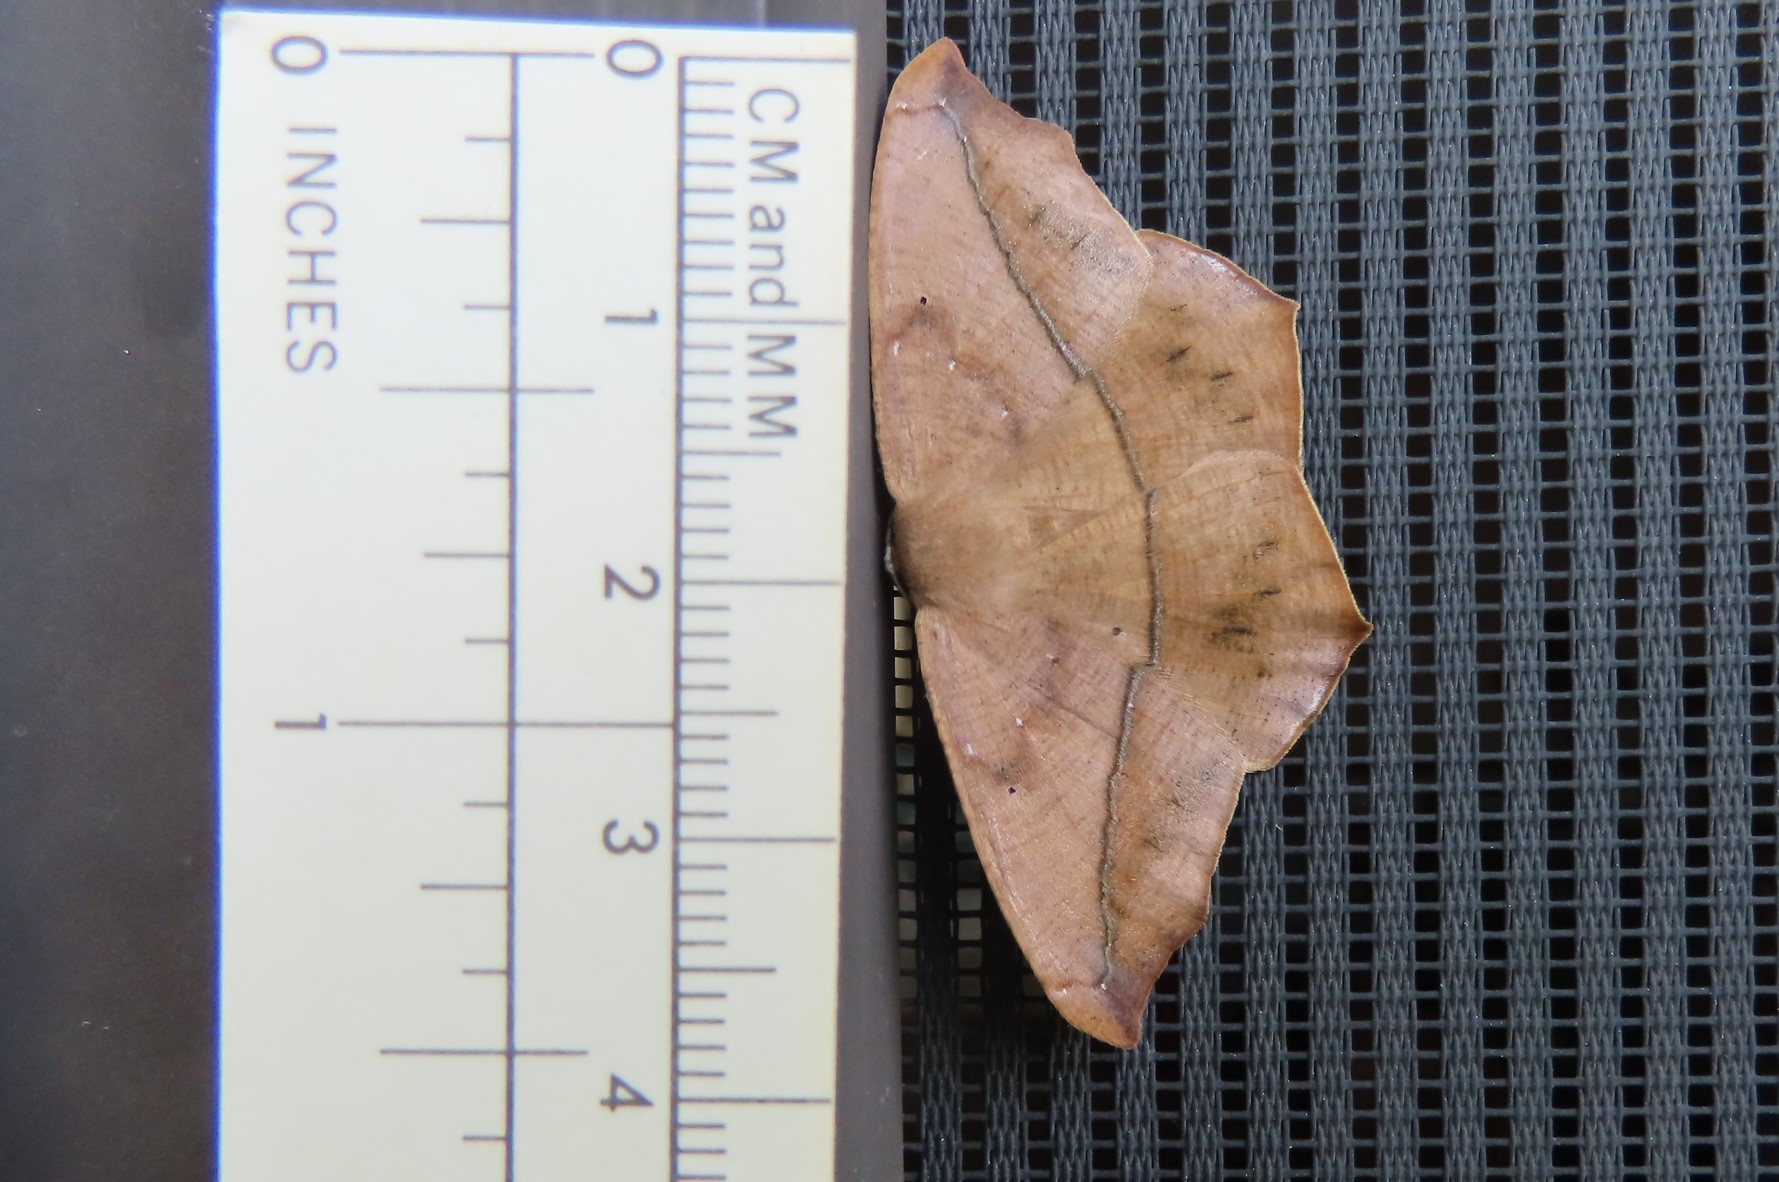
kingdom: Animalia
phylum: Arthropoda
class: Insecta
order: Lepidoptera
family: Geometridae
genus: Prochoerodes
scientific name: Prochoerodes lineola
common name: Large maple spanworm
